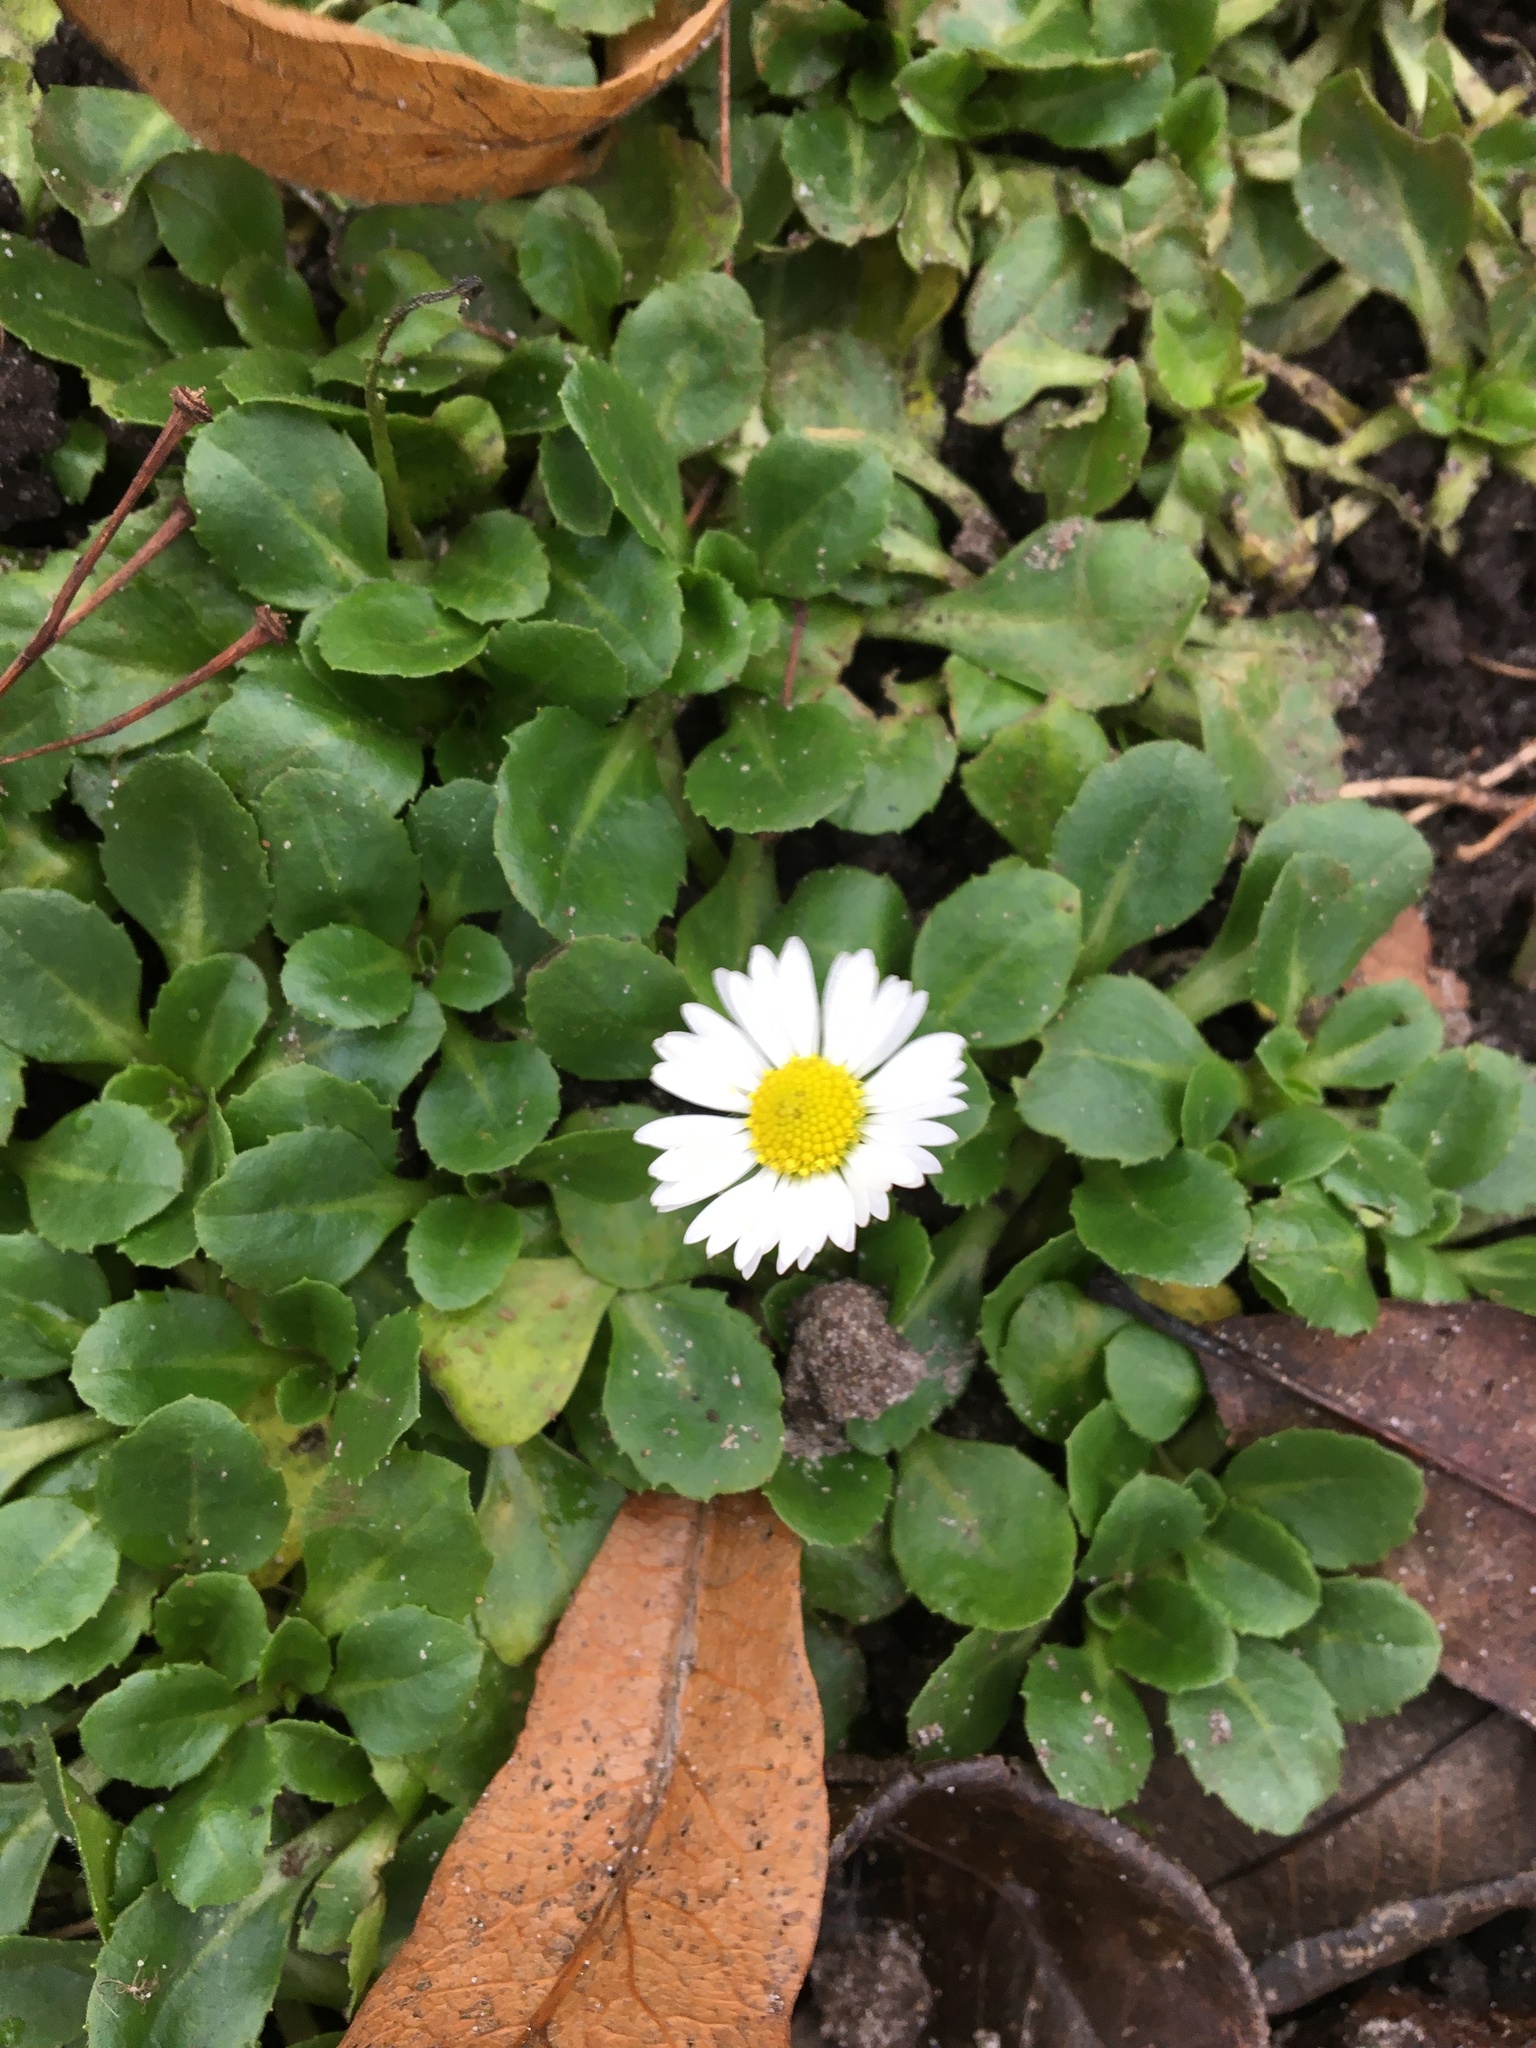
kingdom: Plantae
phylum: Tracheophyta
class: Magnoliopsida
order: Asterales
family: Asteraceae
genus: Bellis
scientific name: Bellis perennis
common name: Lawndaisy
